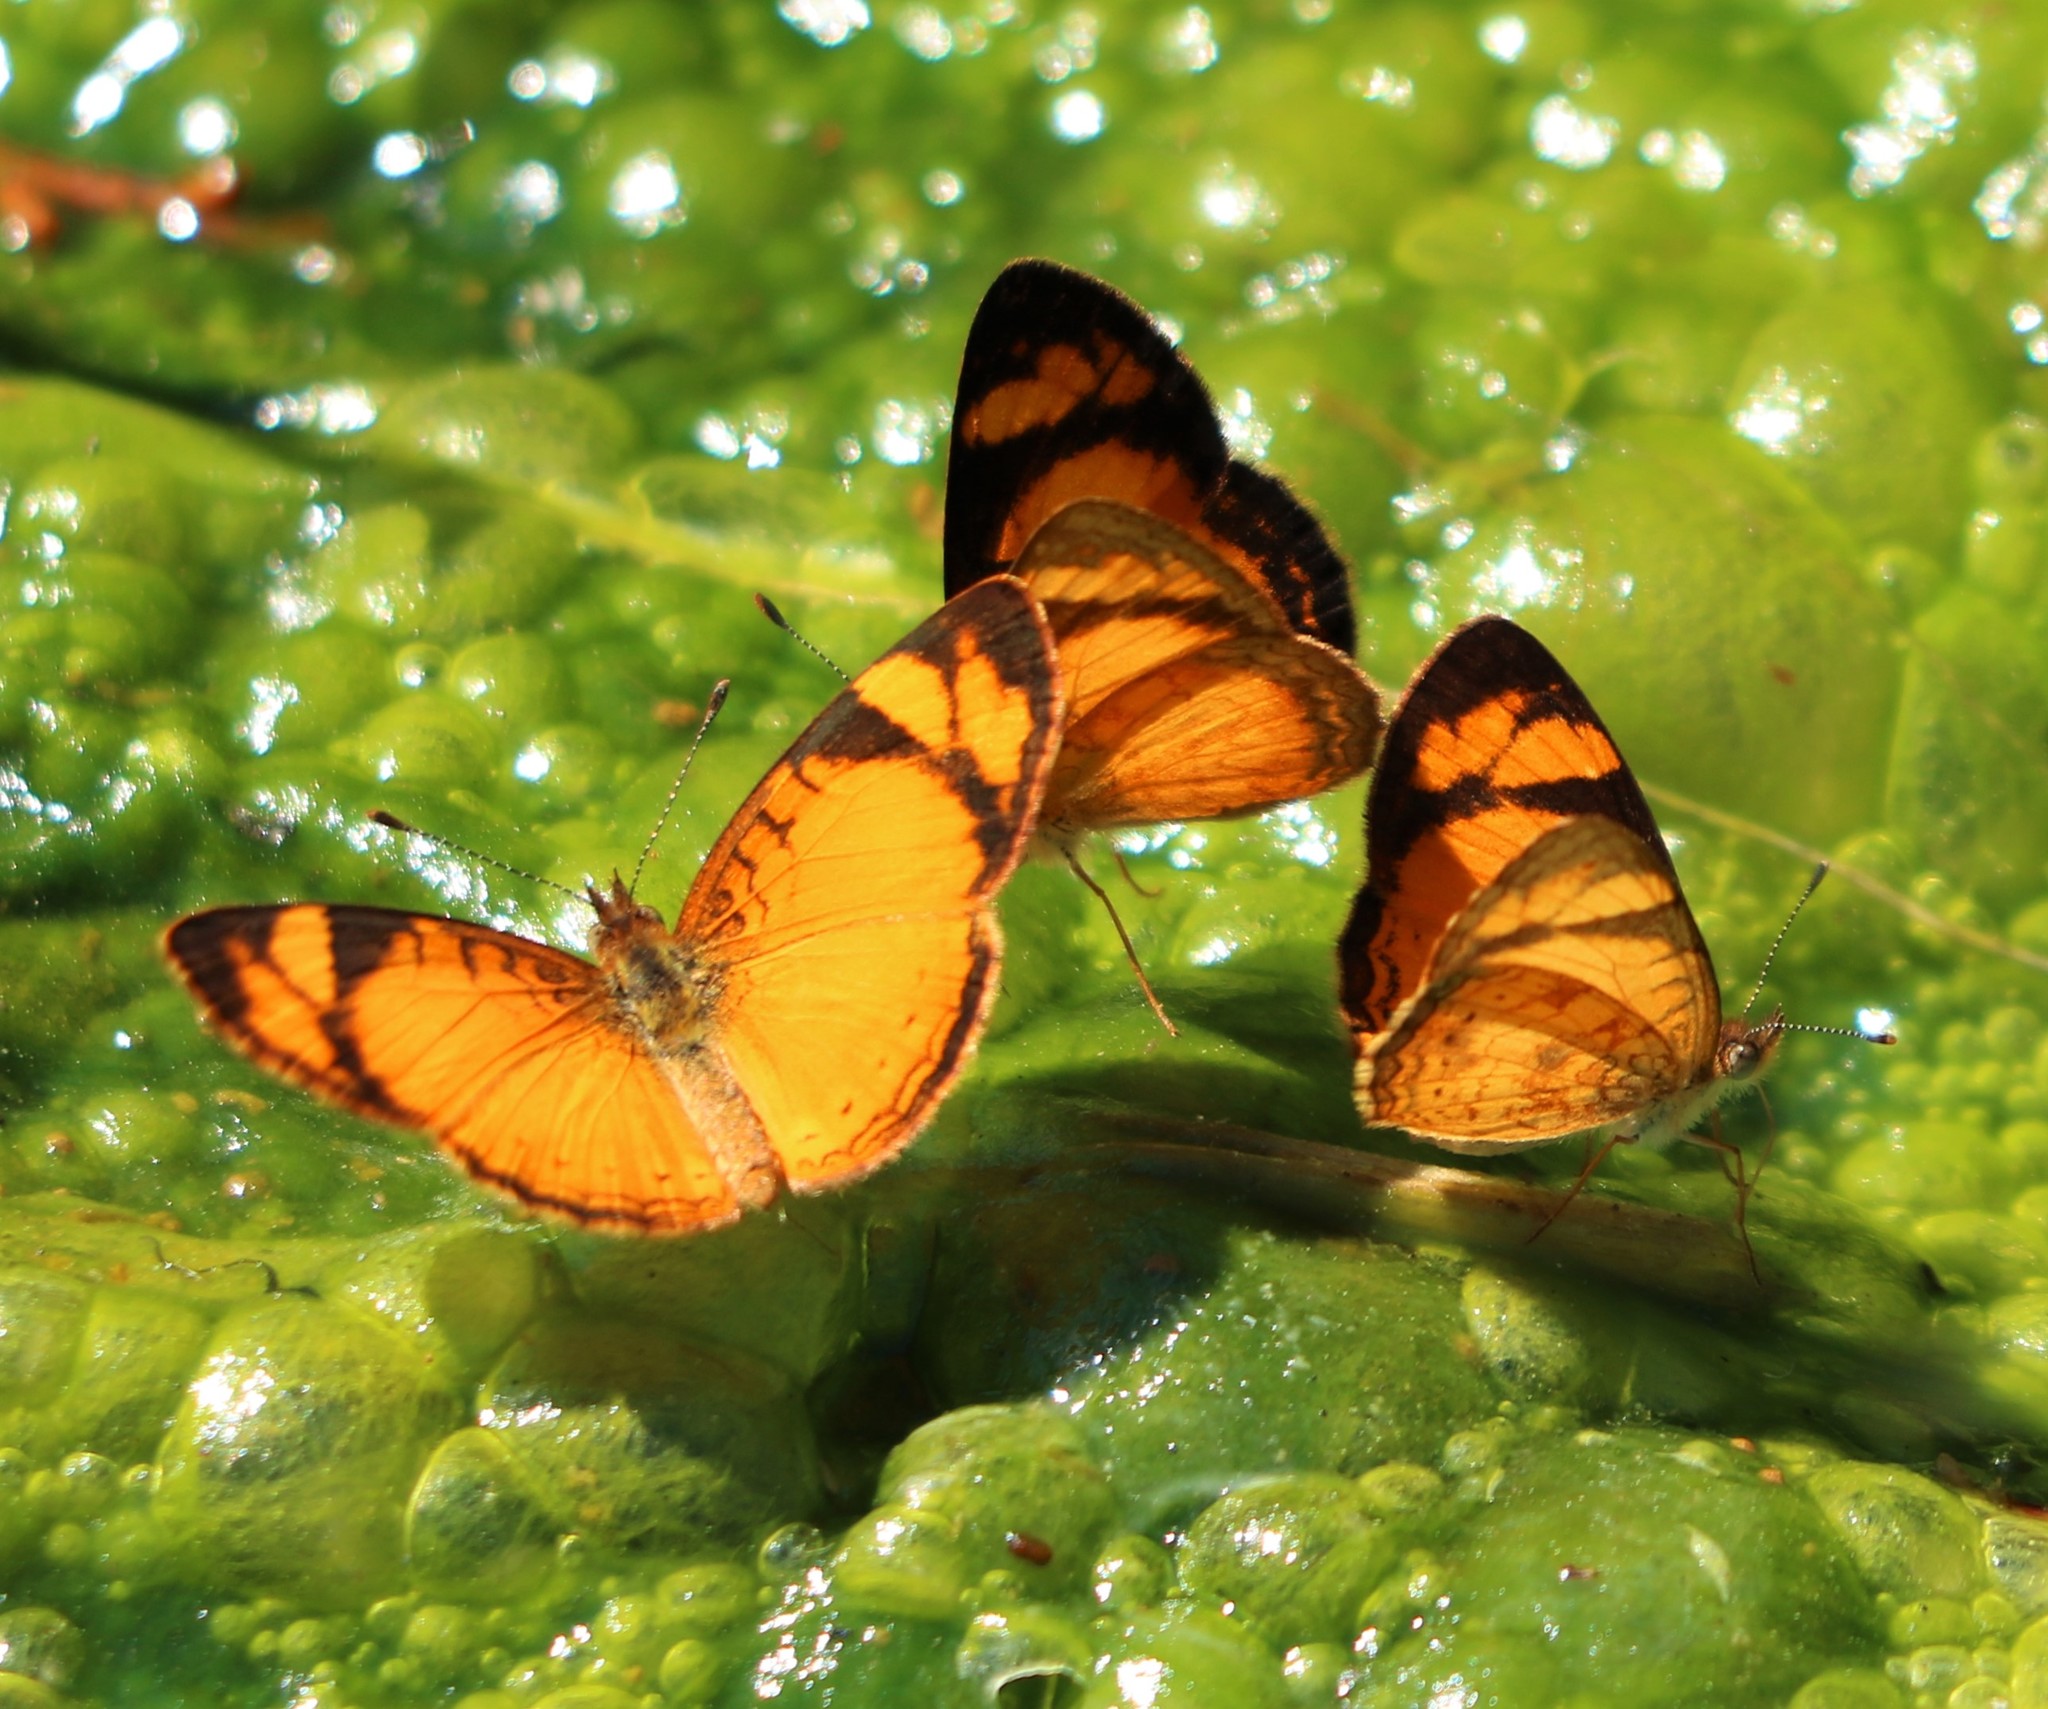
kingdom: Animalia
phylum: Arthropoda
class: Insecta
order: Lepidoptera
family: Nymphalidae
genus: Tegosa
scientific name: Tegosa claudina
